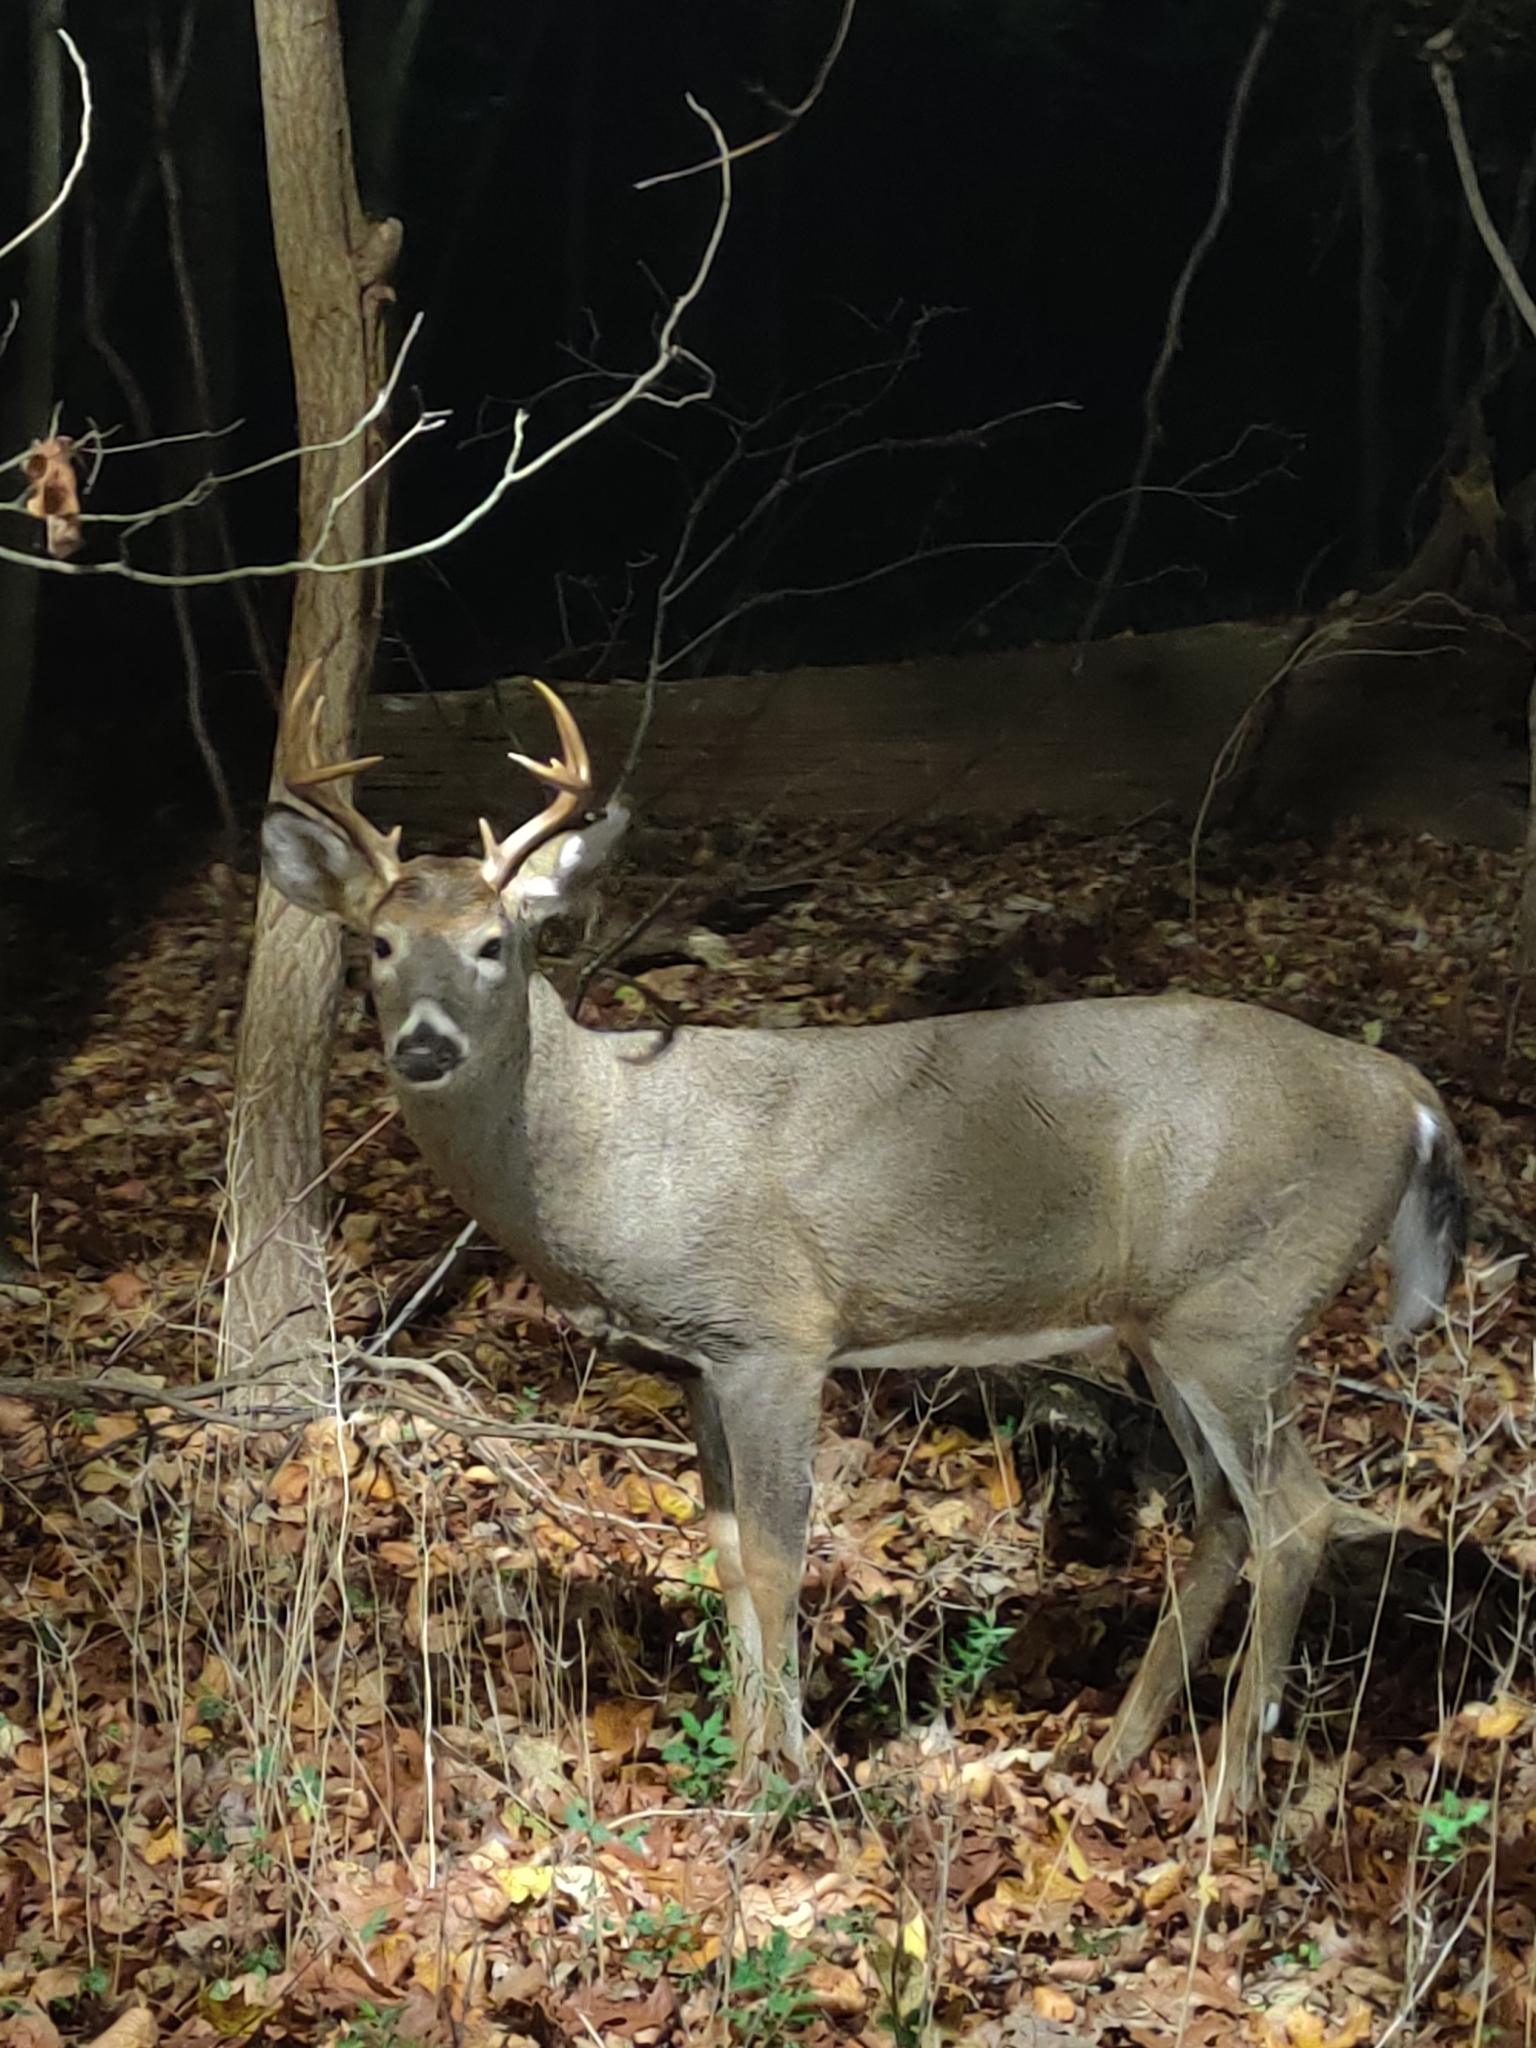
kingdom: Animalia
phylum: Chordata
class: Mammalia
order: Artiodactyla
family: Cervidae
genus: Odocoileus
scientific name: Odocoileus virginianus
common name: White-tailed deer
